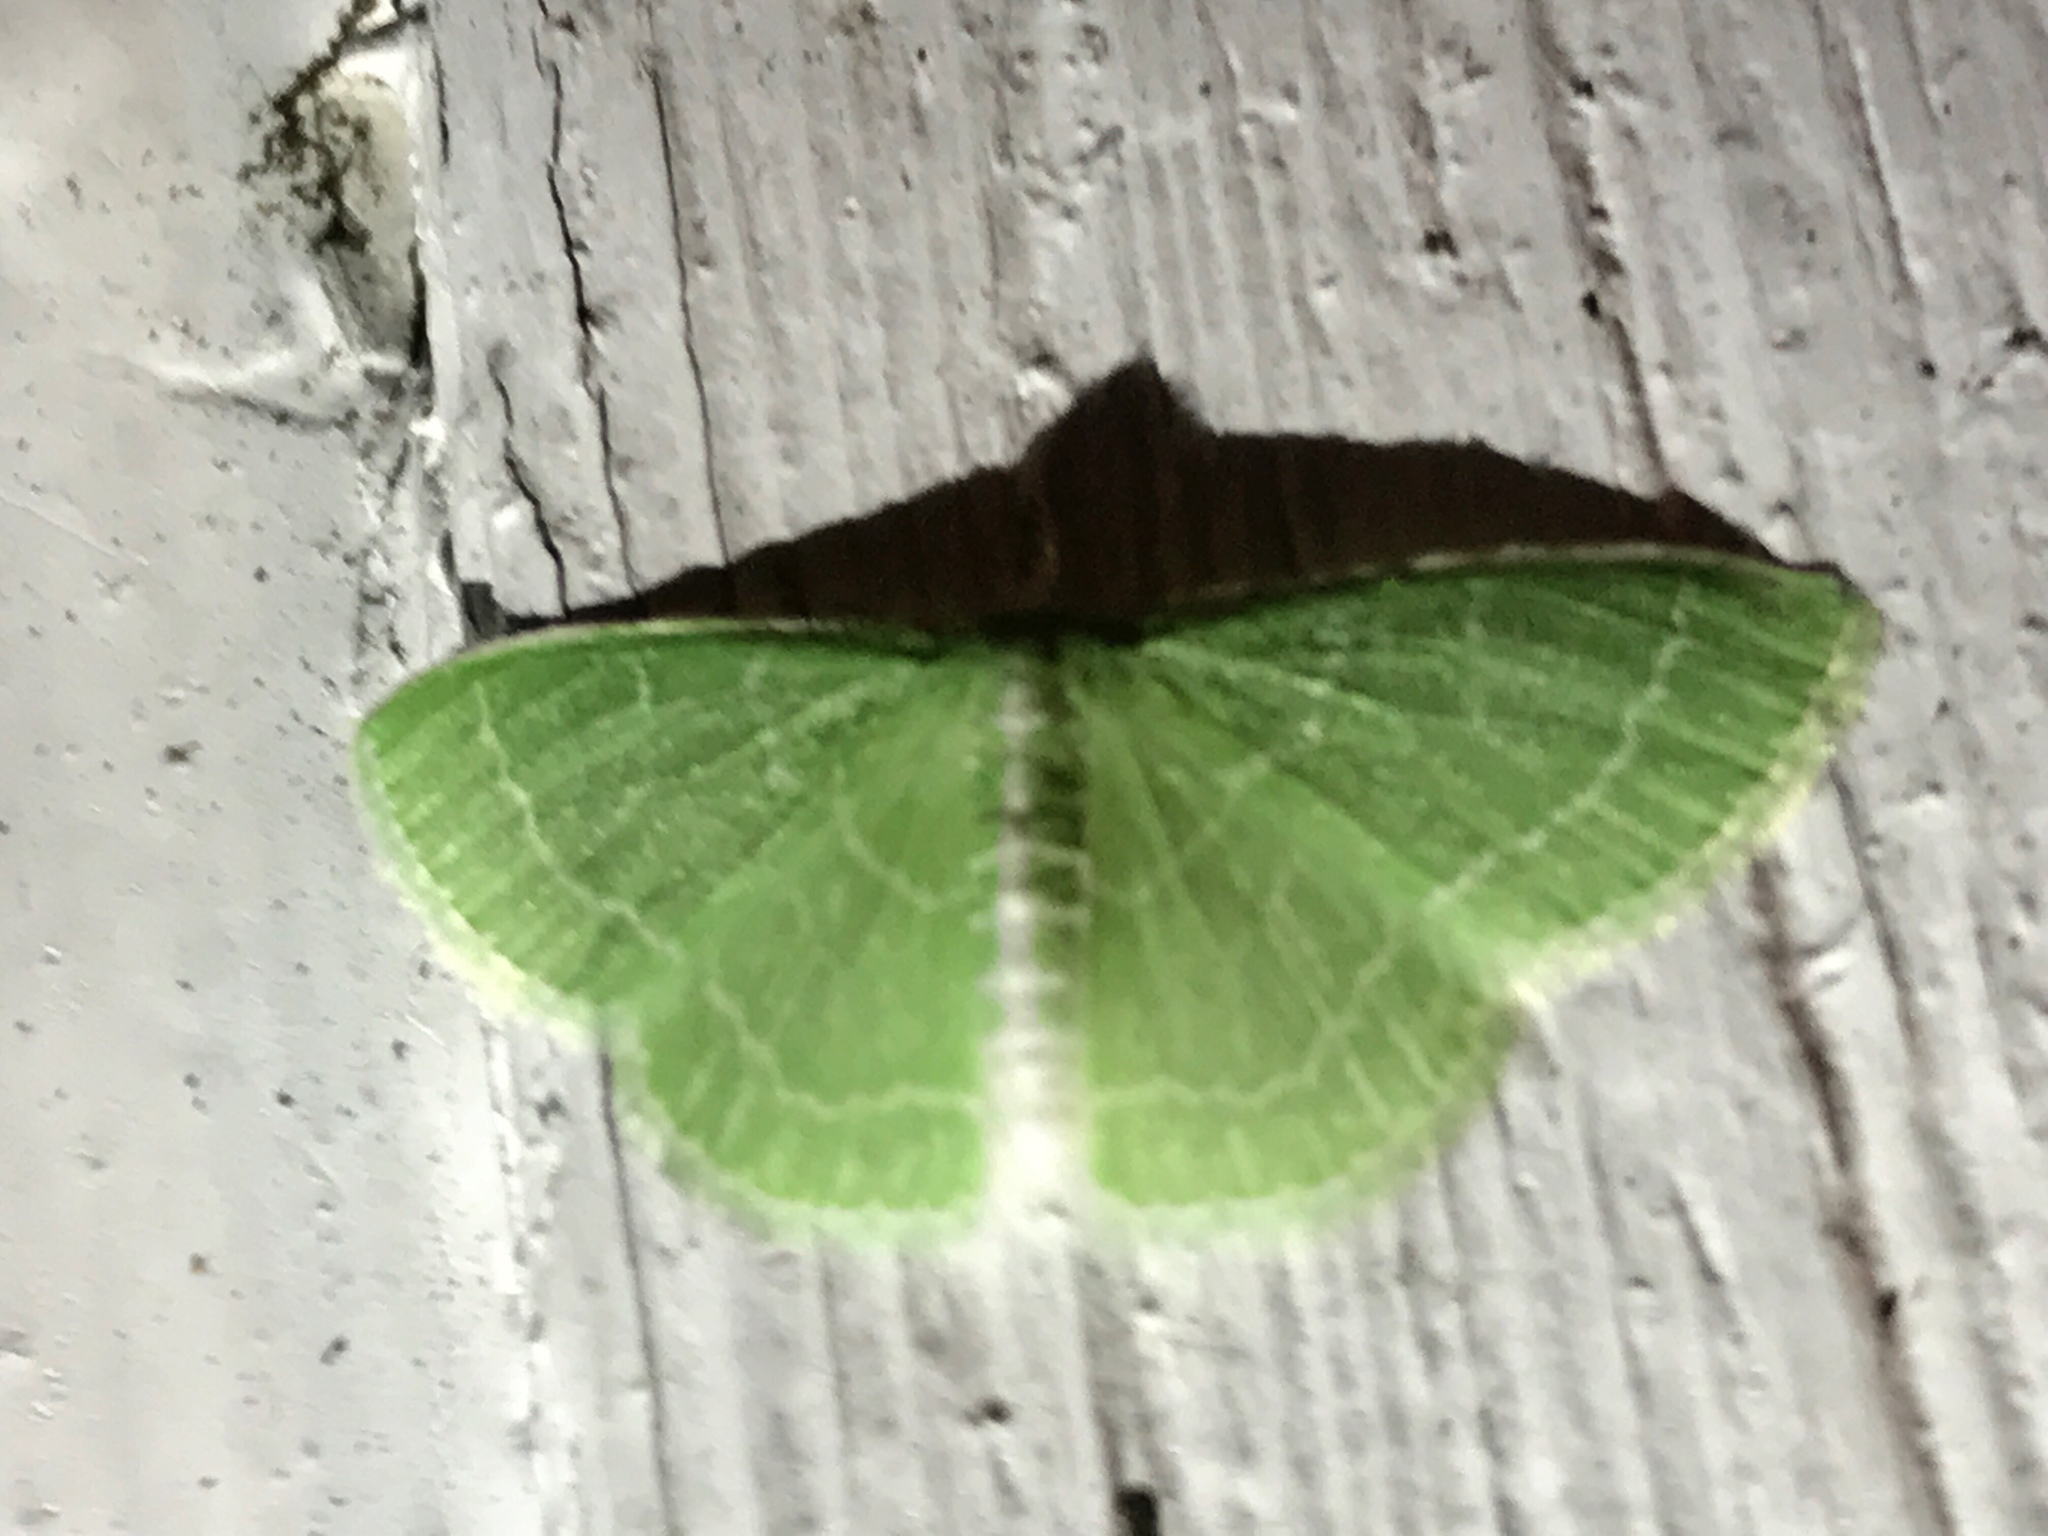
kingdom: Animalia
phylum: Arthropoda
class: Insecta
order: Lepidoptera
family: Geometridae
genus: Synchlora
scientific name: Synchlora aerata
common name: Wavy-lined emerald
